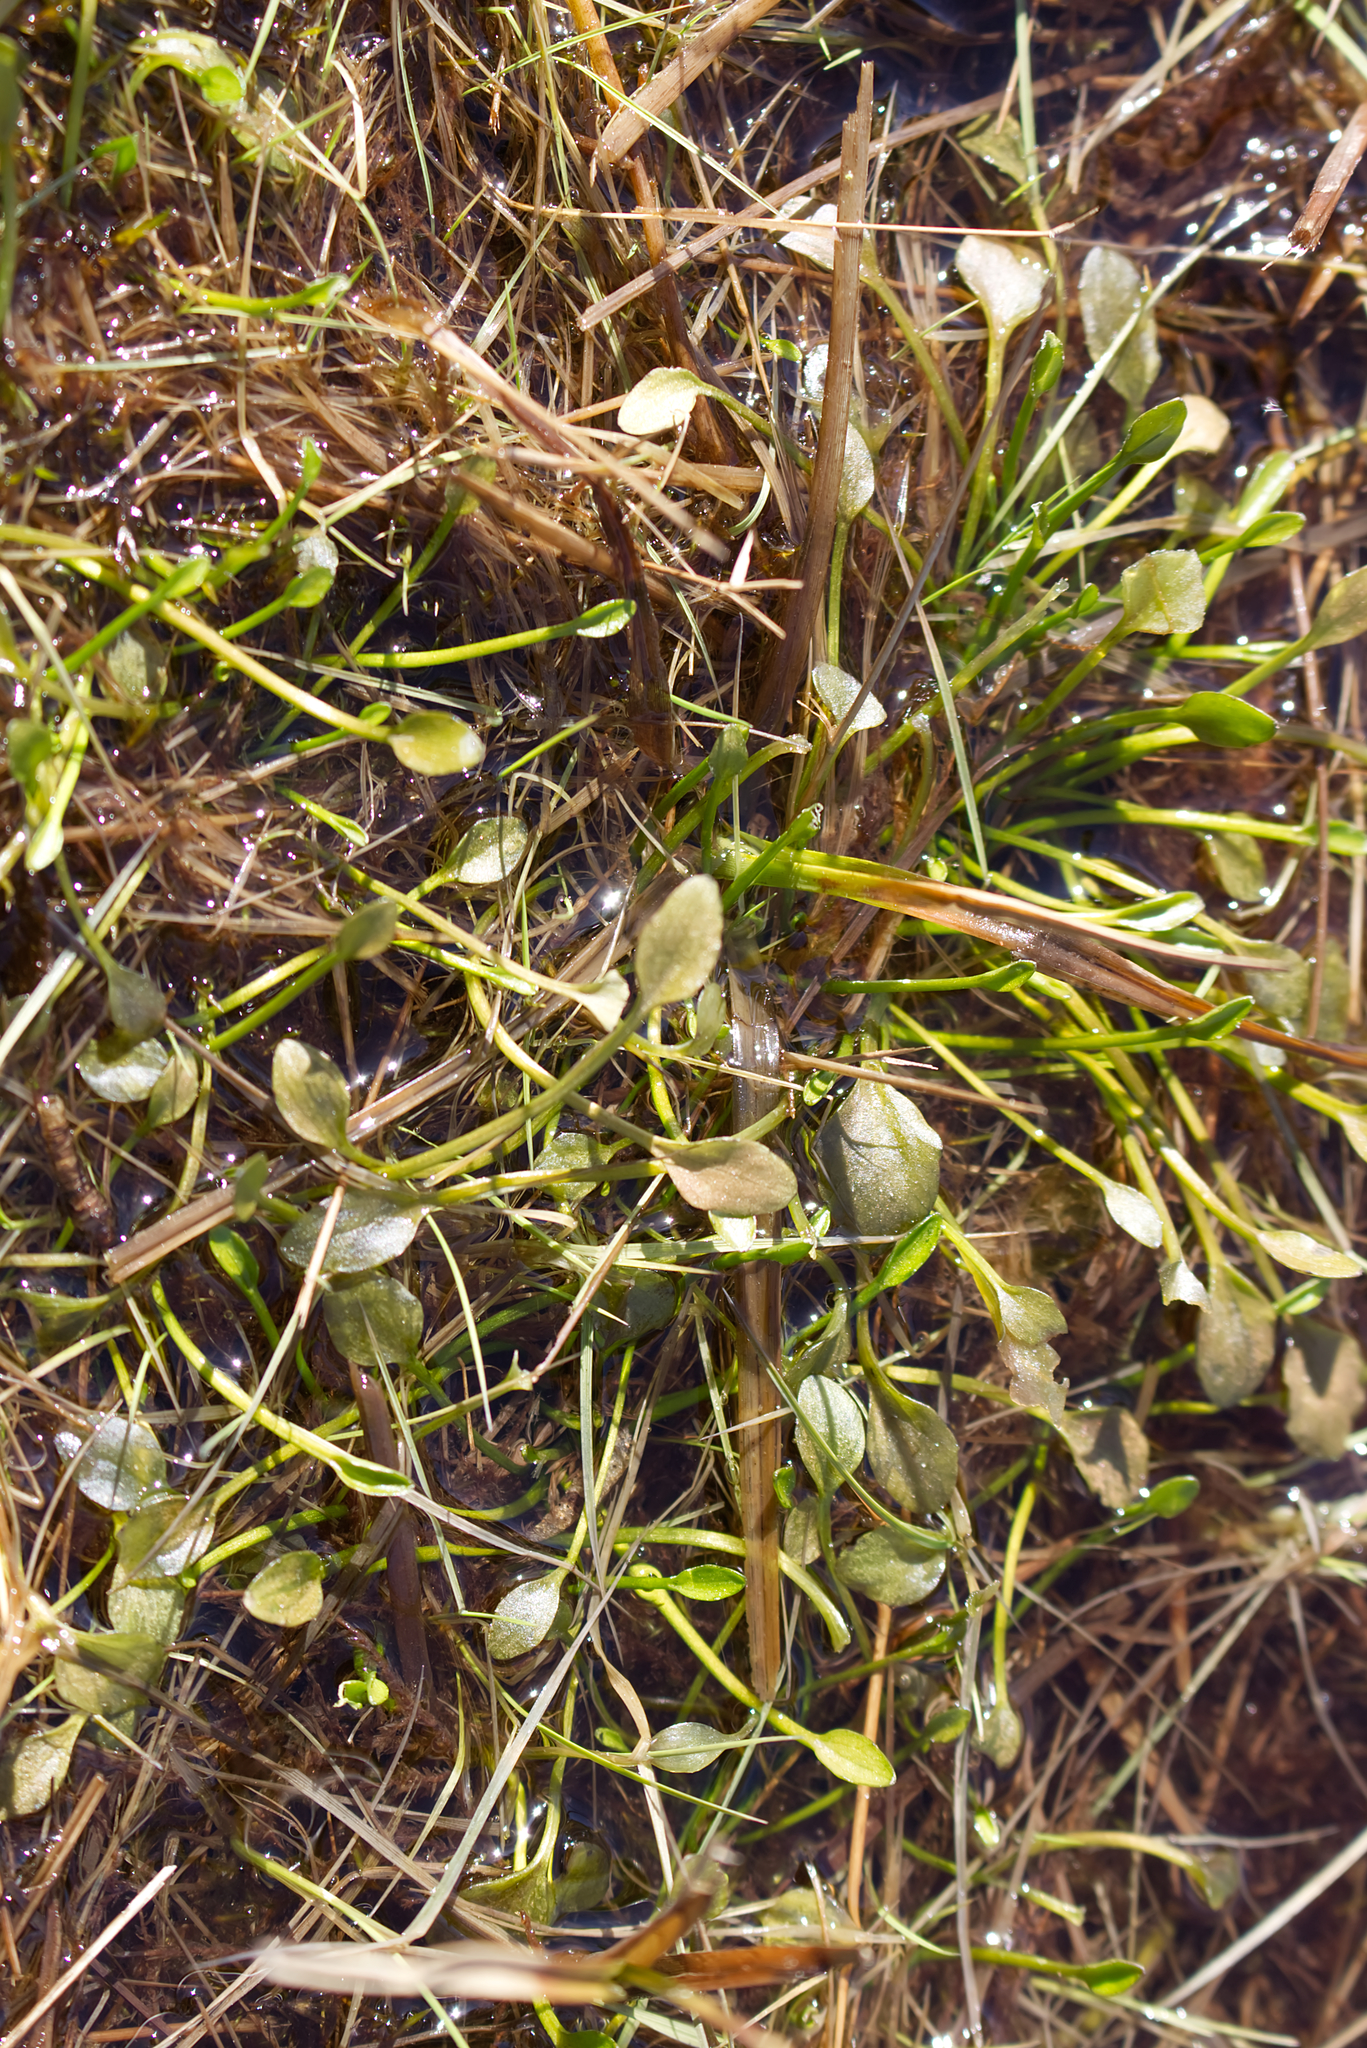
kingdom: Plantae
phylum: Tracheophyta
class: Magnoliopsida
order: Ranunculales
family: Ranunculaceae
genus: Ranunculus
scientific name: Ranunculus flammula
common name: Lesser spearwort
